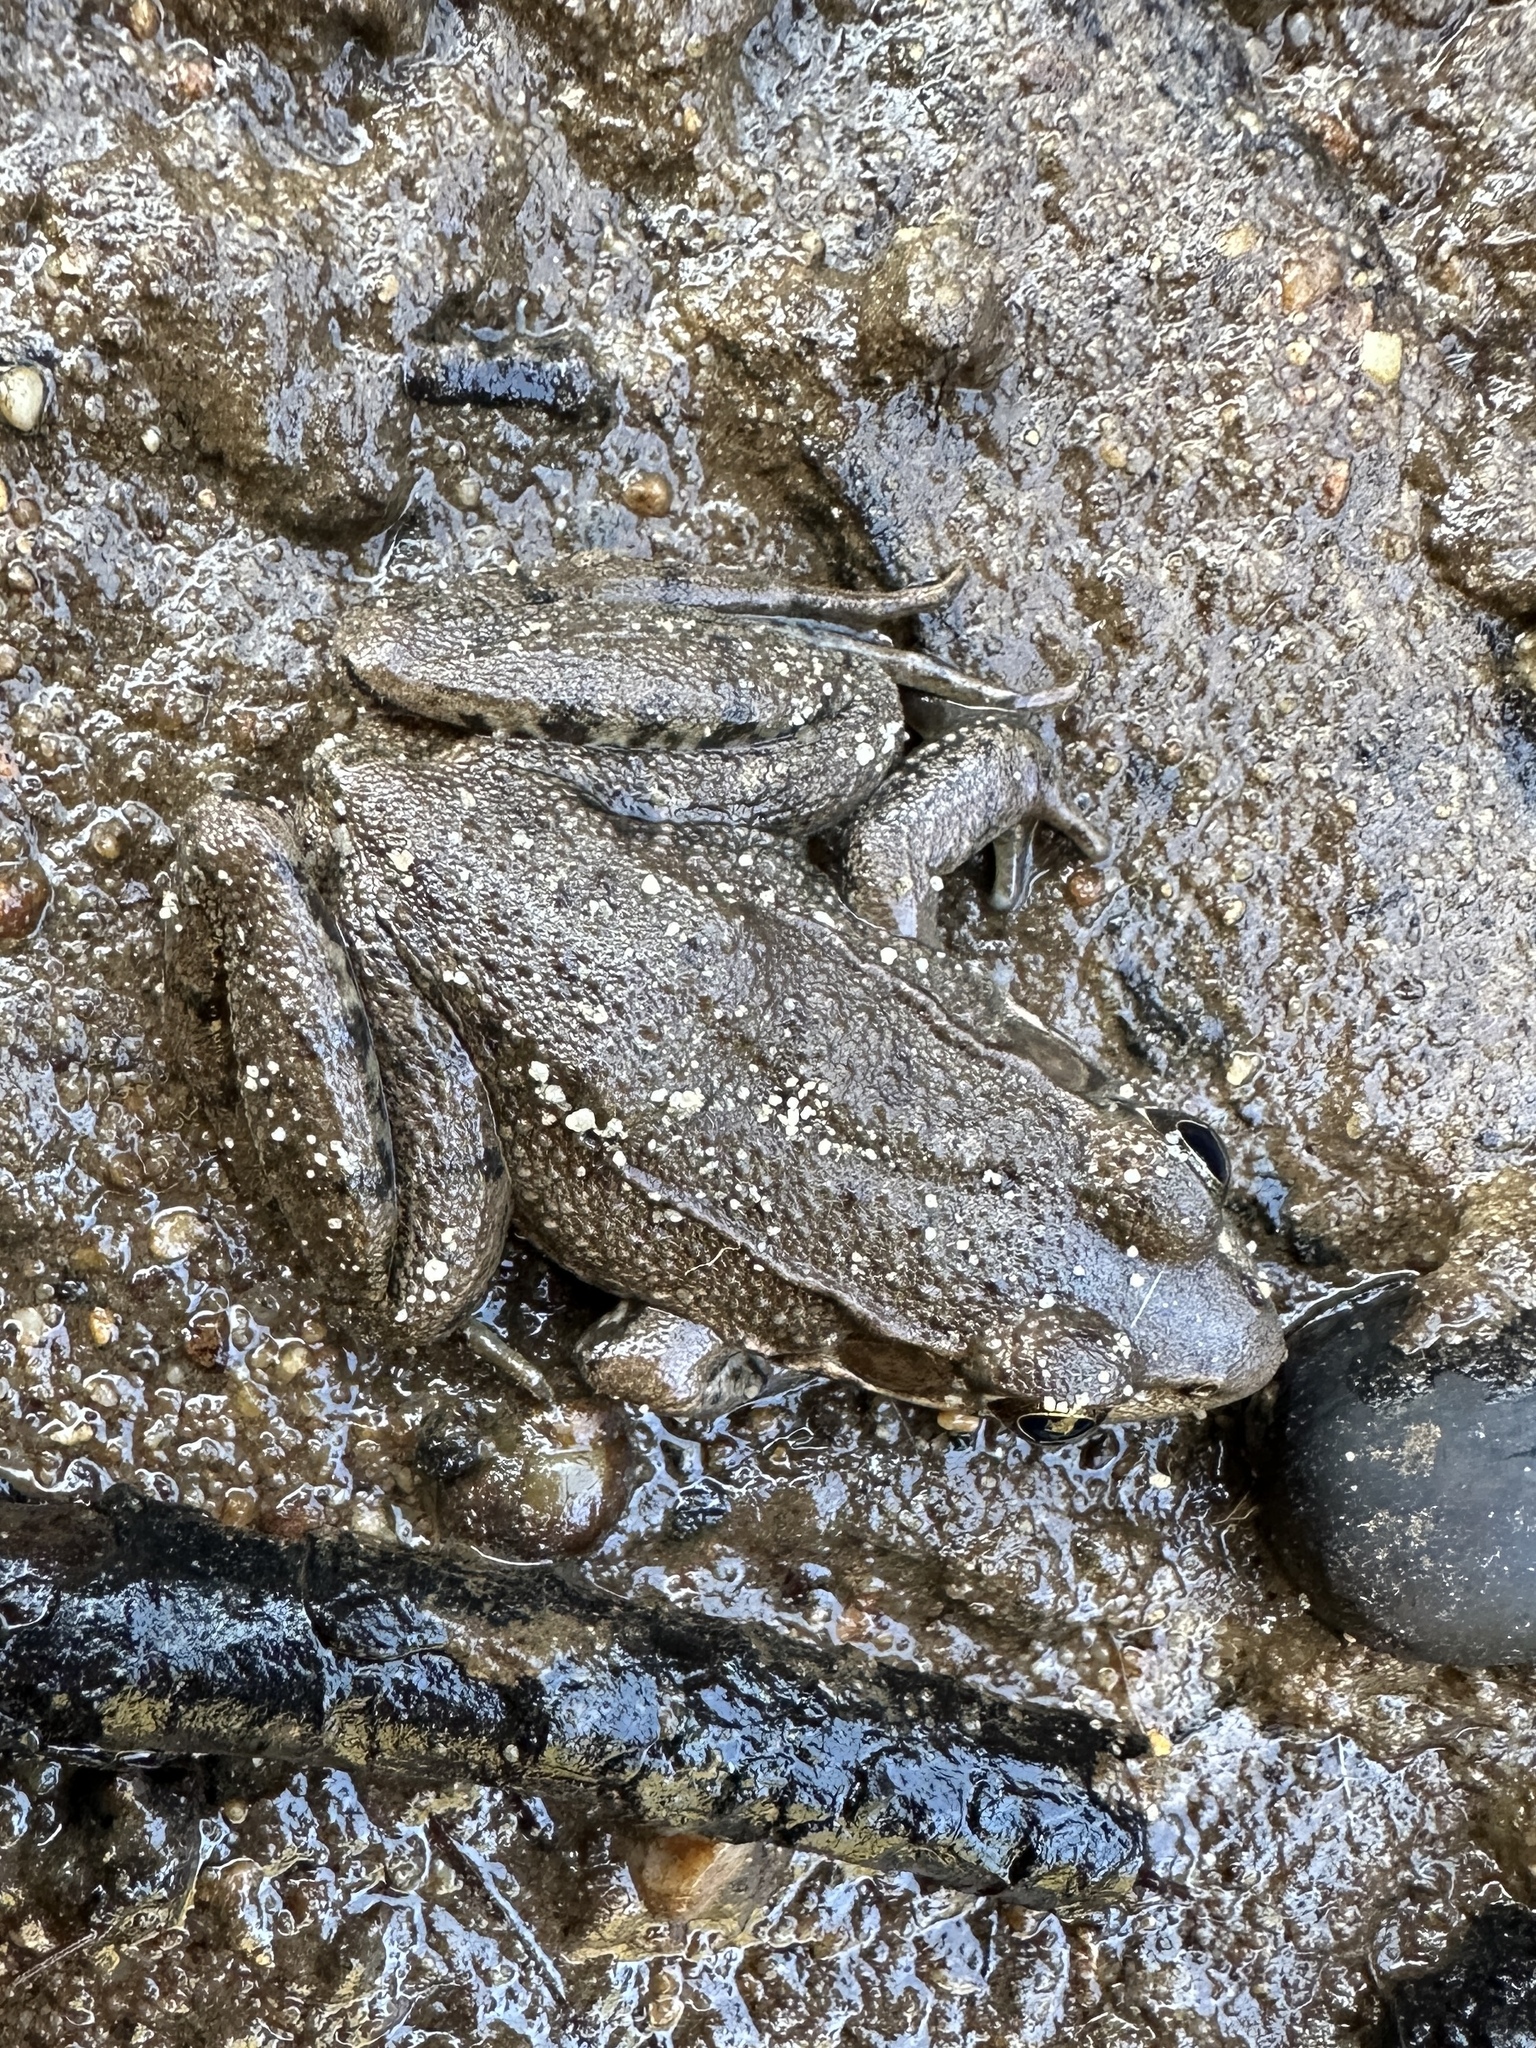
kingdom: Animalia
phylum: Chordata
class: Amphibia
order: Anura
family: Ranidae
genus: Lithobates
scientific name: Lithobates clamitans
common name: Green frog
